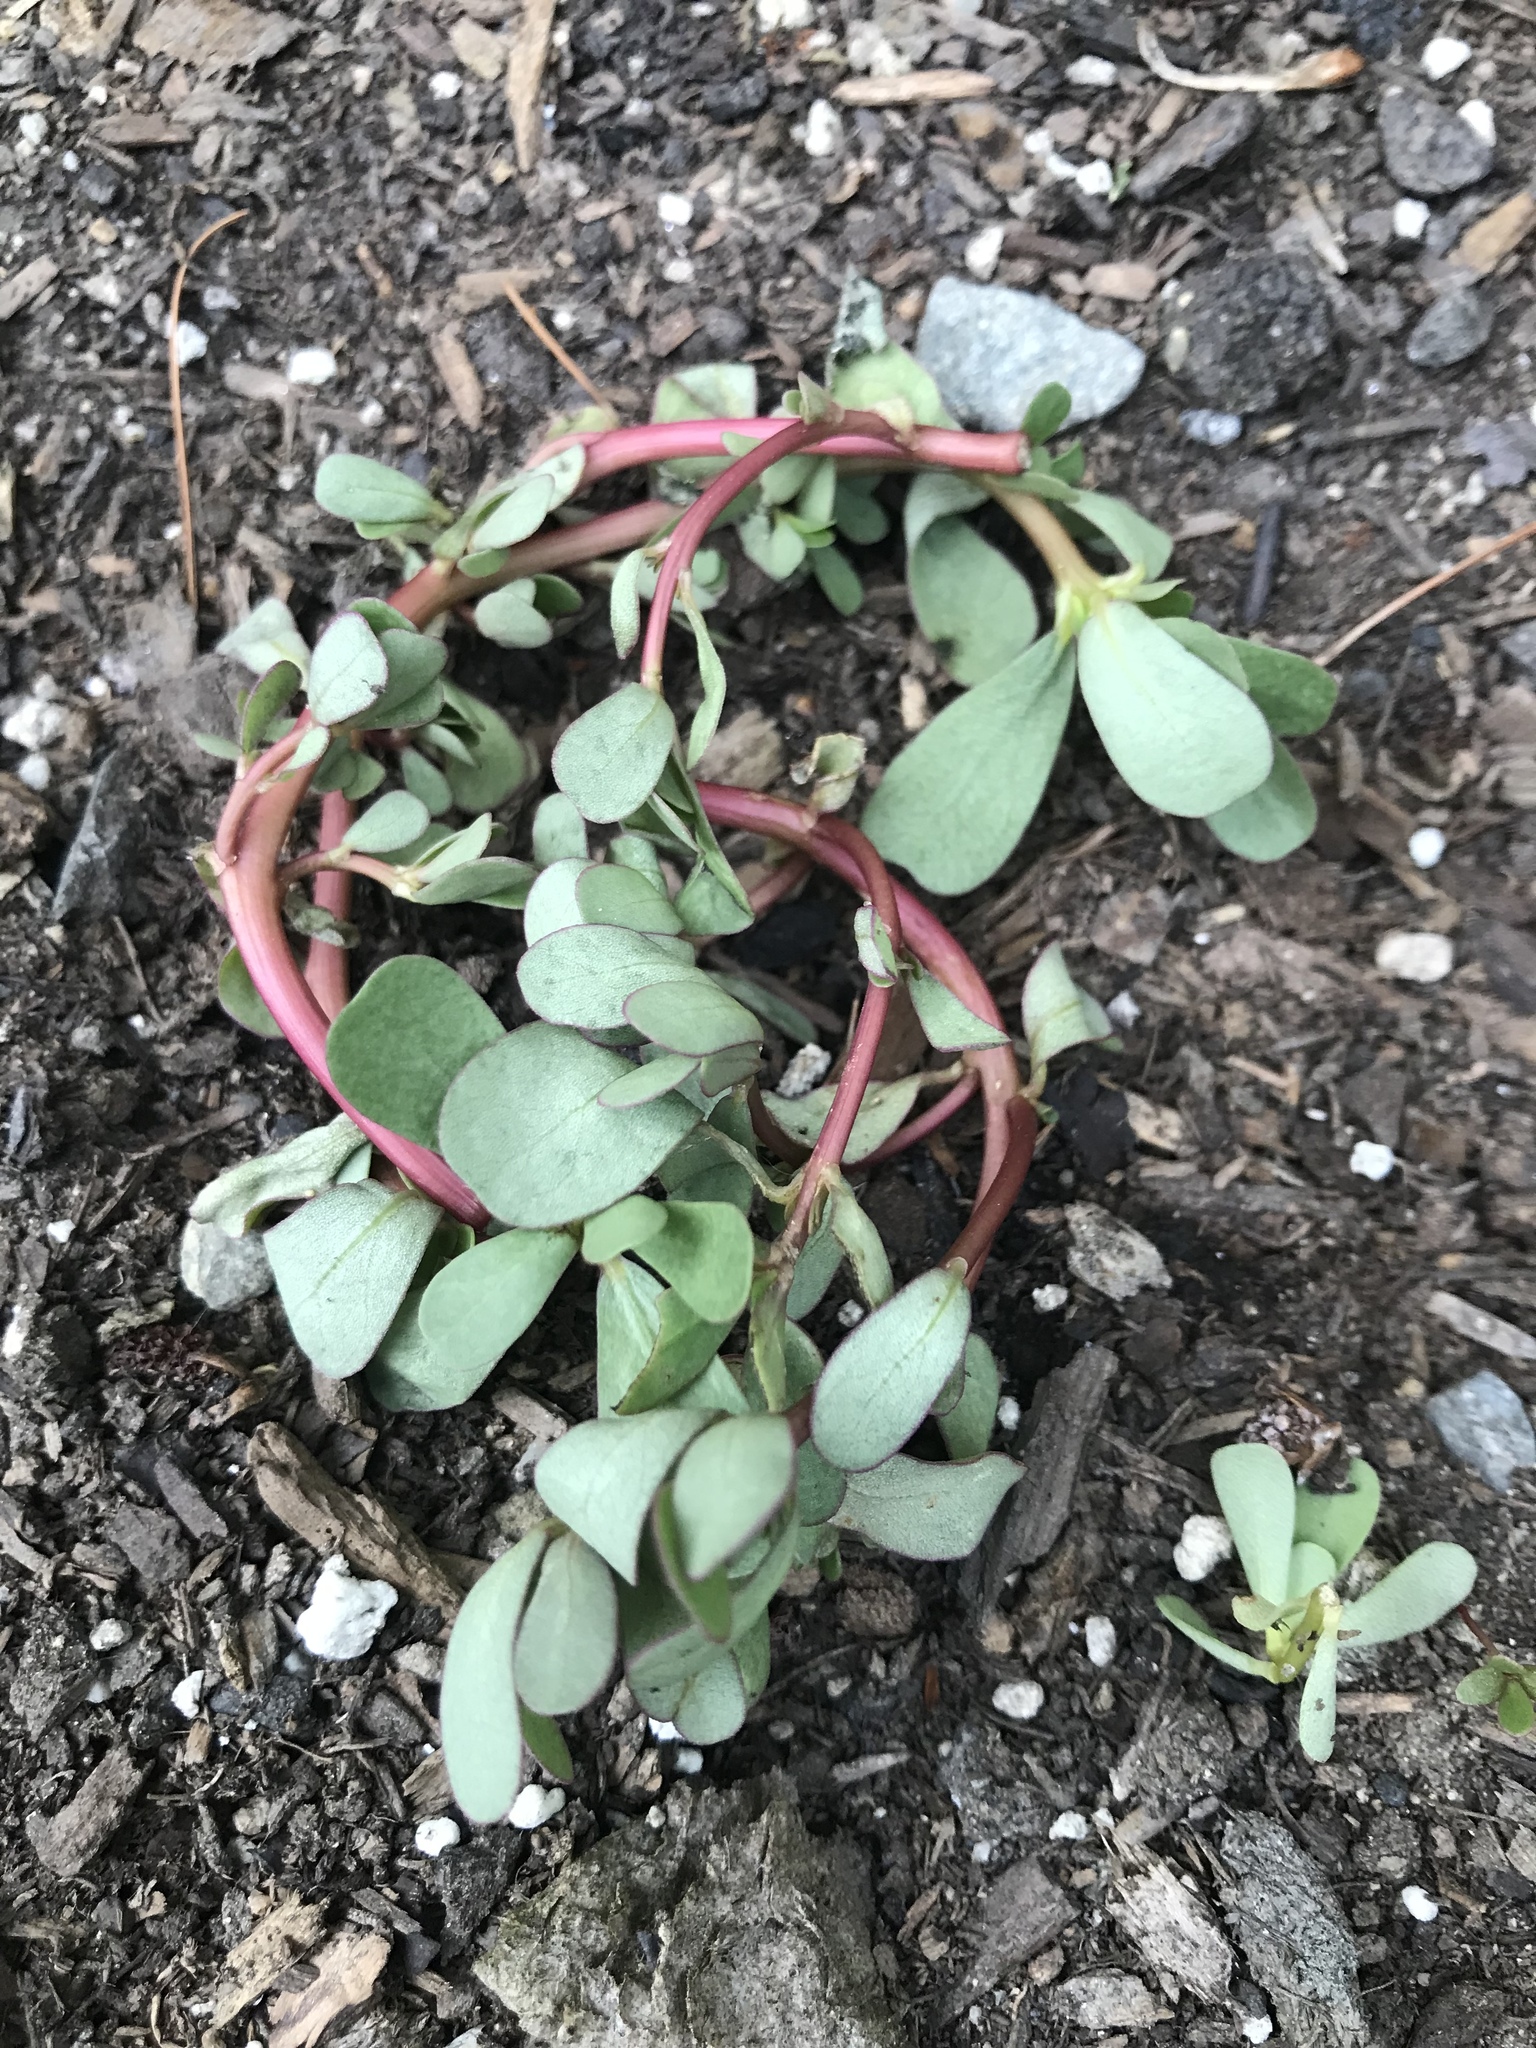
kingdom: Plantae
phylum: Tracheophyta
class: Magnoliopsida
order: Caryophyllales
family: Portulacaceae
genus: Portulaca
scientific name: Portulaca oleracea
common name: Common purslane
